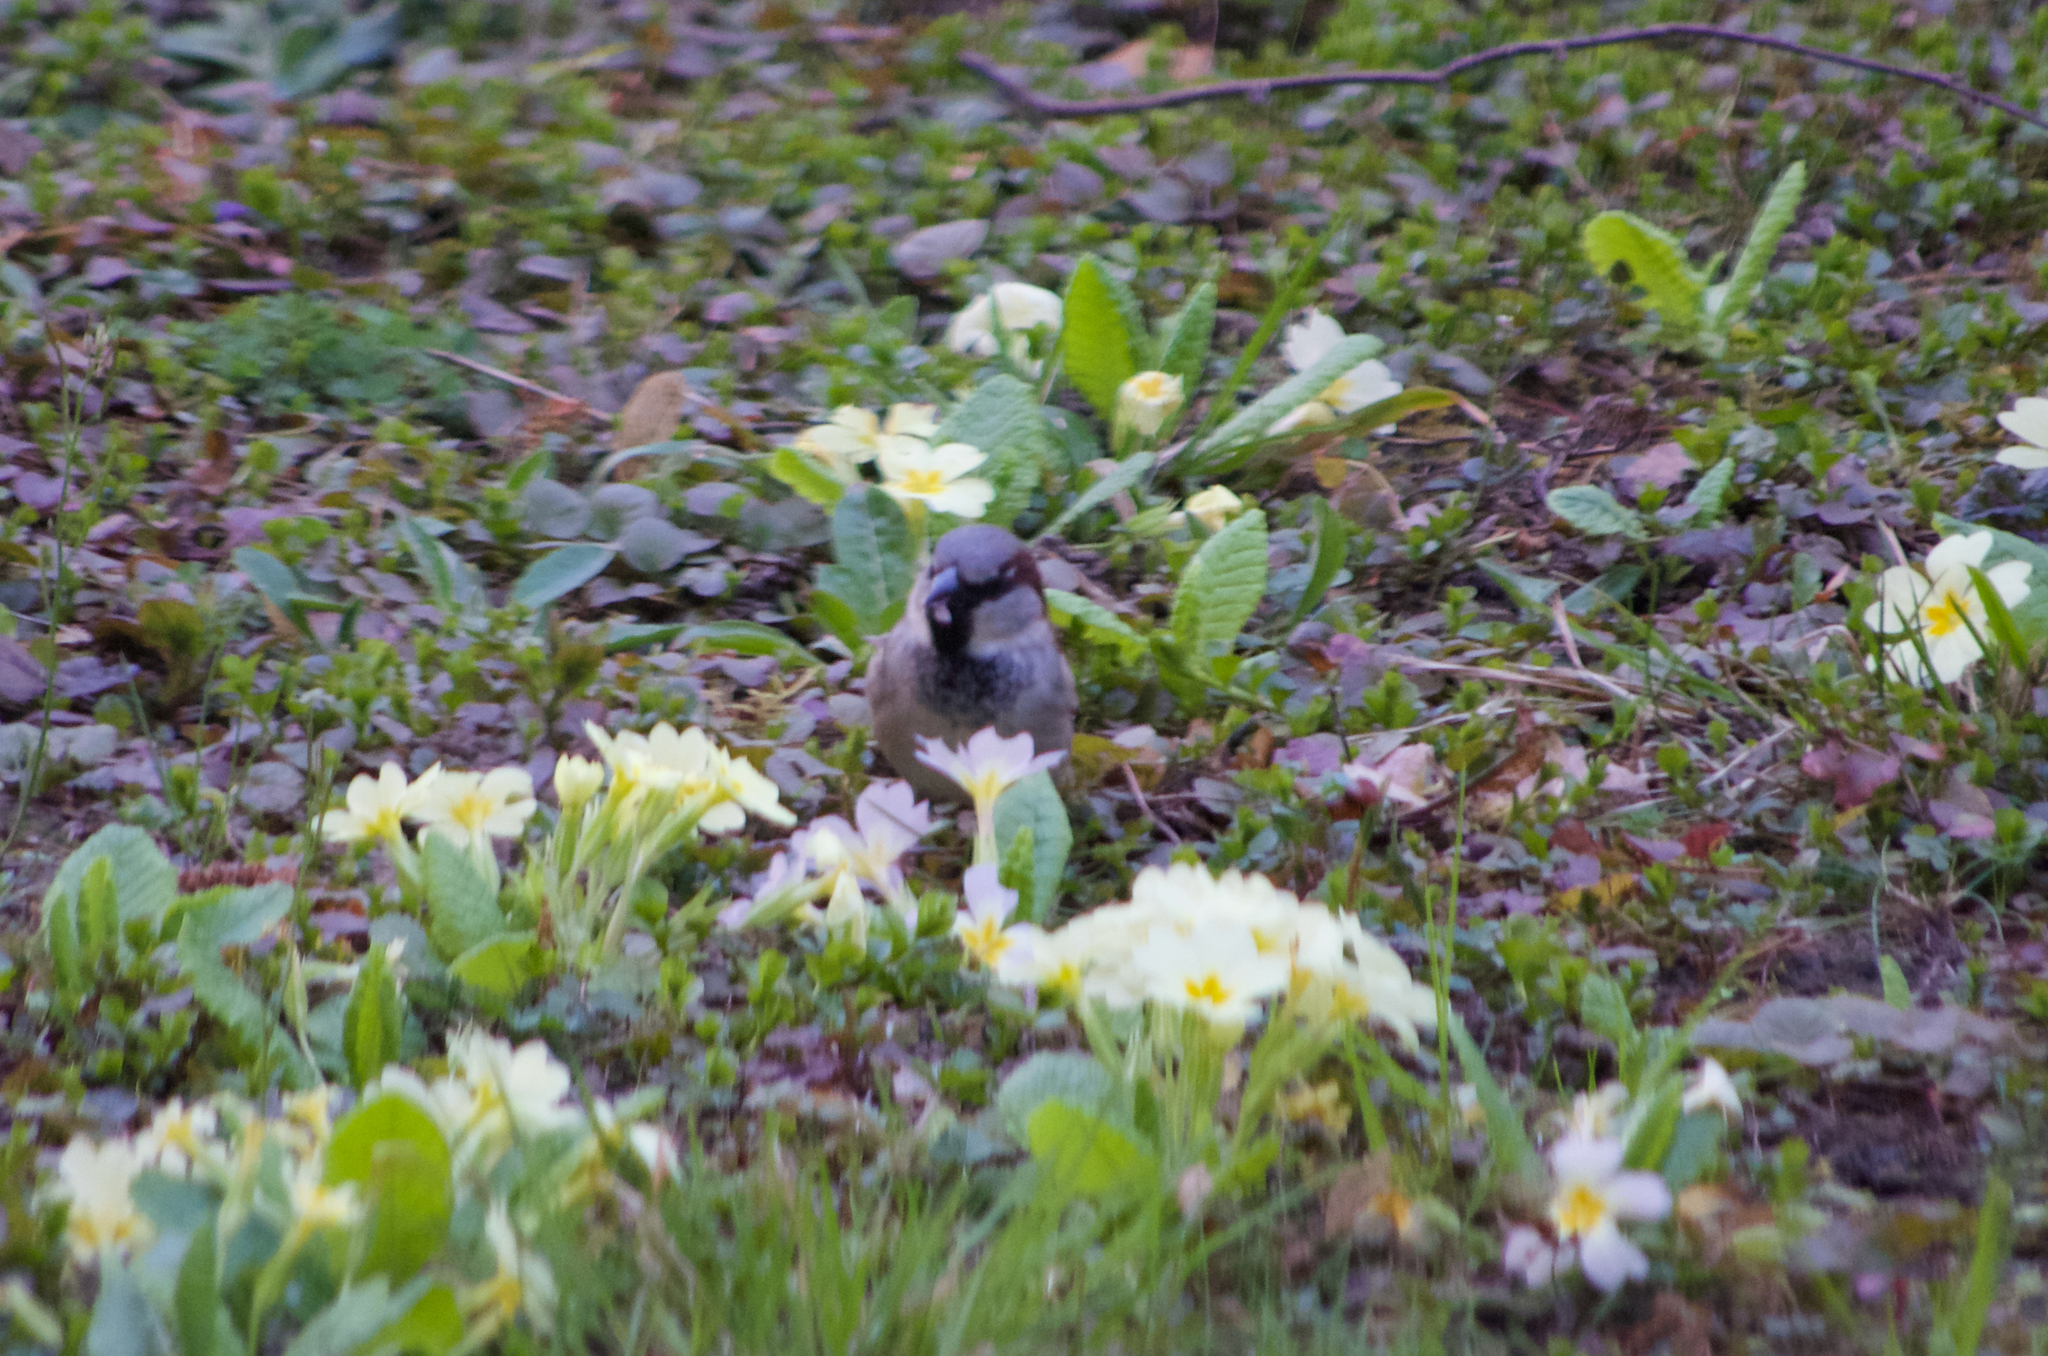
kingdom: Animalia
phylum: Chordata
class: Aves
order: Passeriformes
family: Passeridae
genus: Passer
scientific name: Passer domesticus
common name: House sparrow
